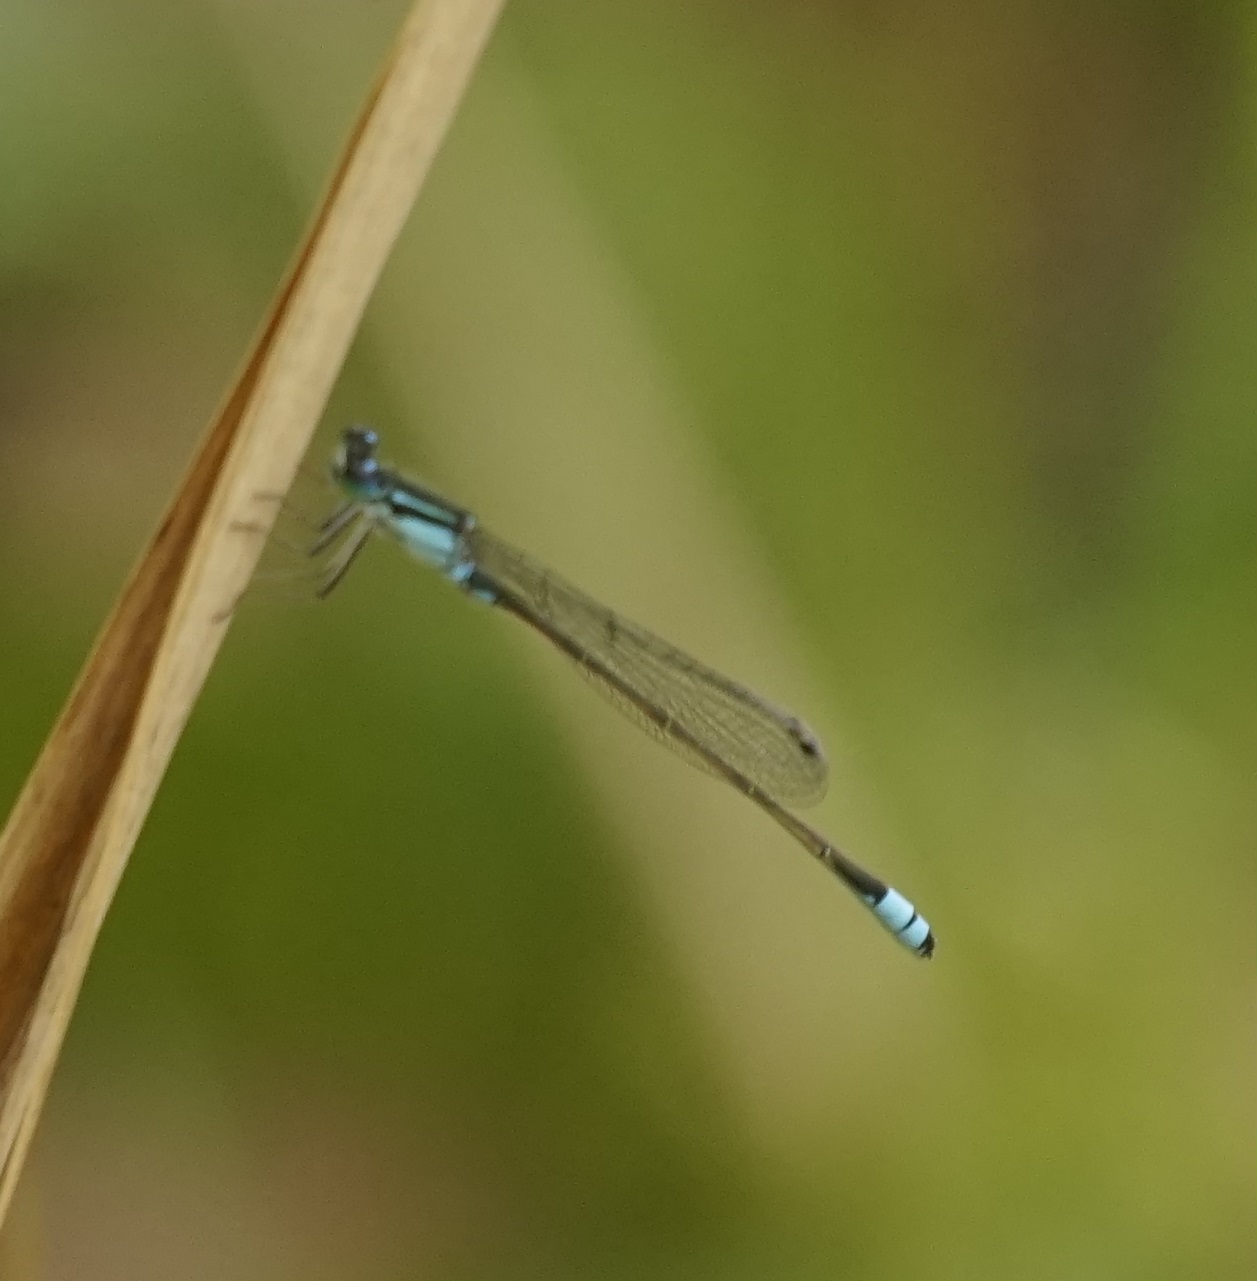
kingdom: Animalia
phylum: Arthropoda
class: Insecta
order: Odonata
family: Coenagrionidae
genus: Ischnura
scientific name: Ischnura heterosticta
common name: Common bluetail
